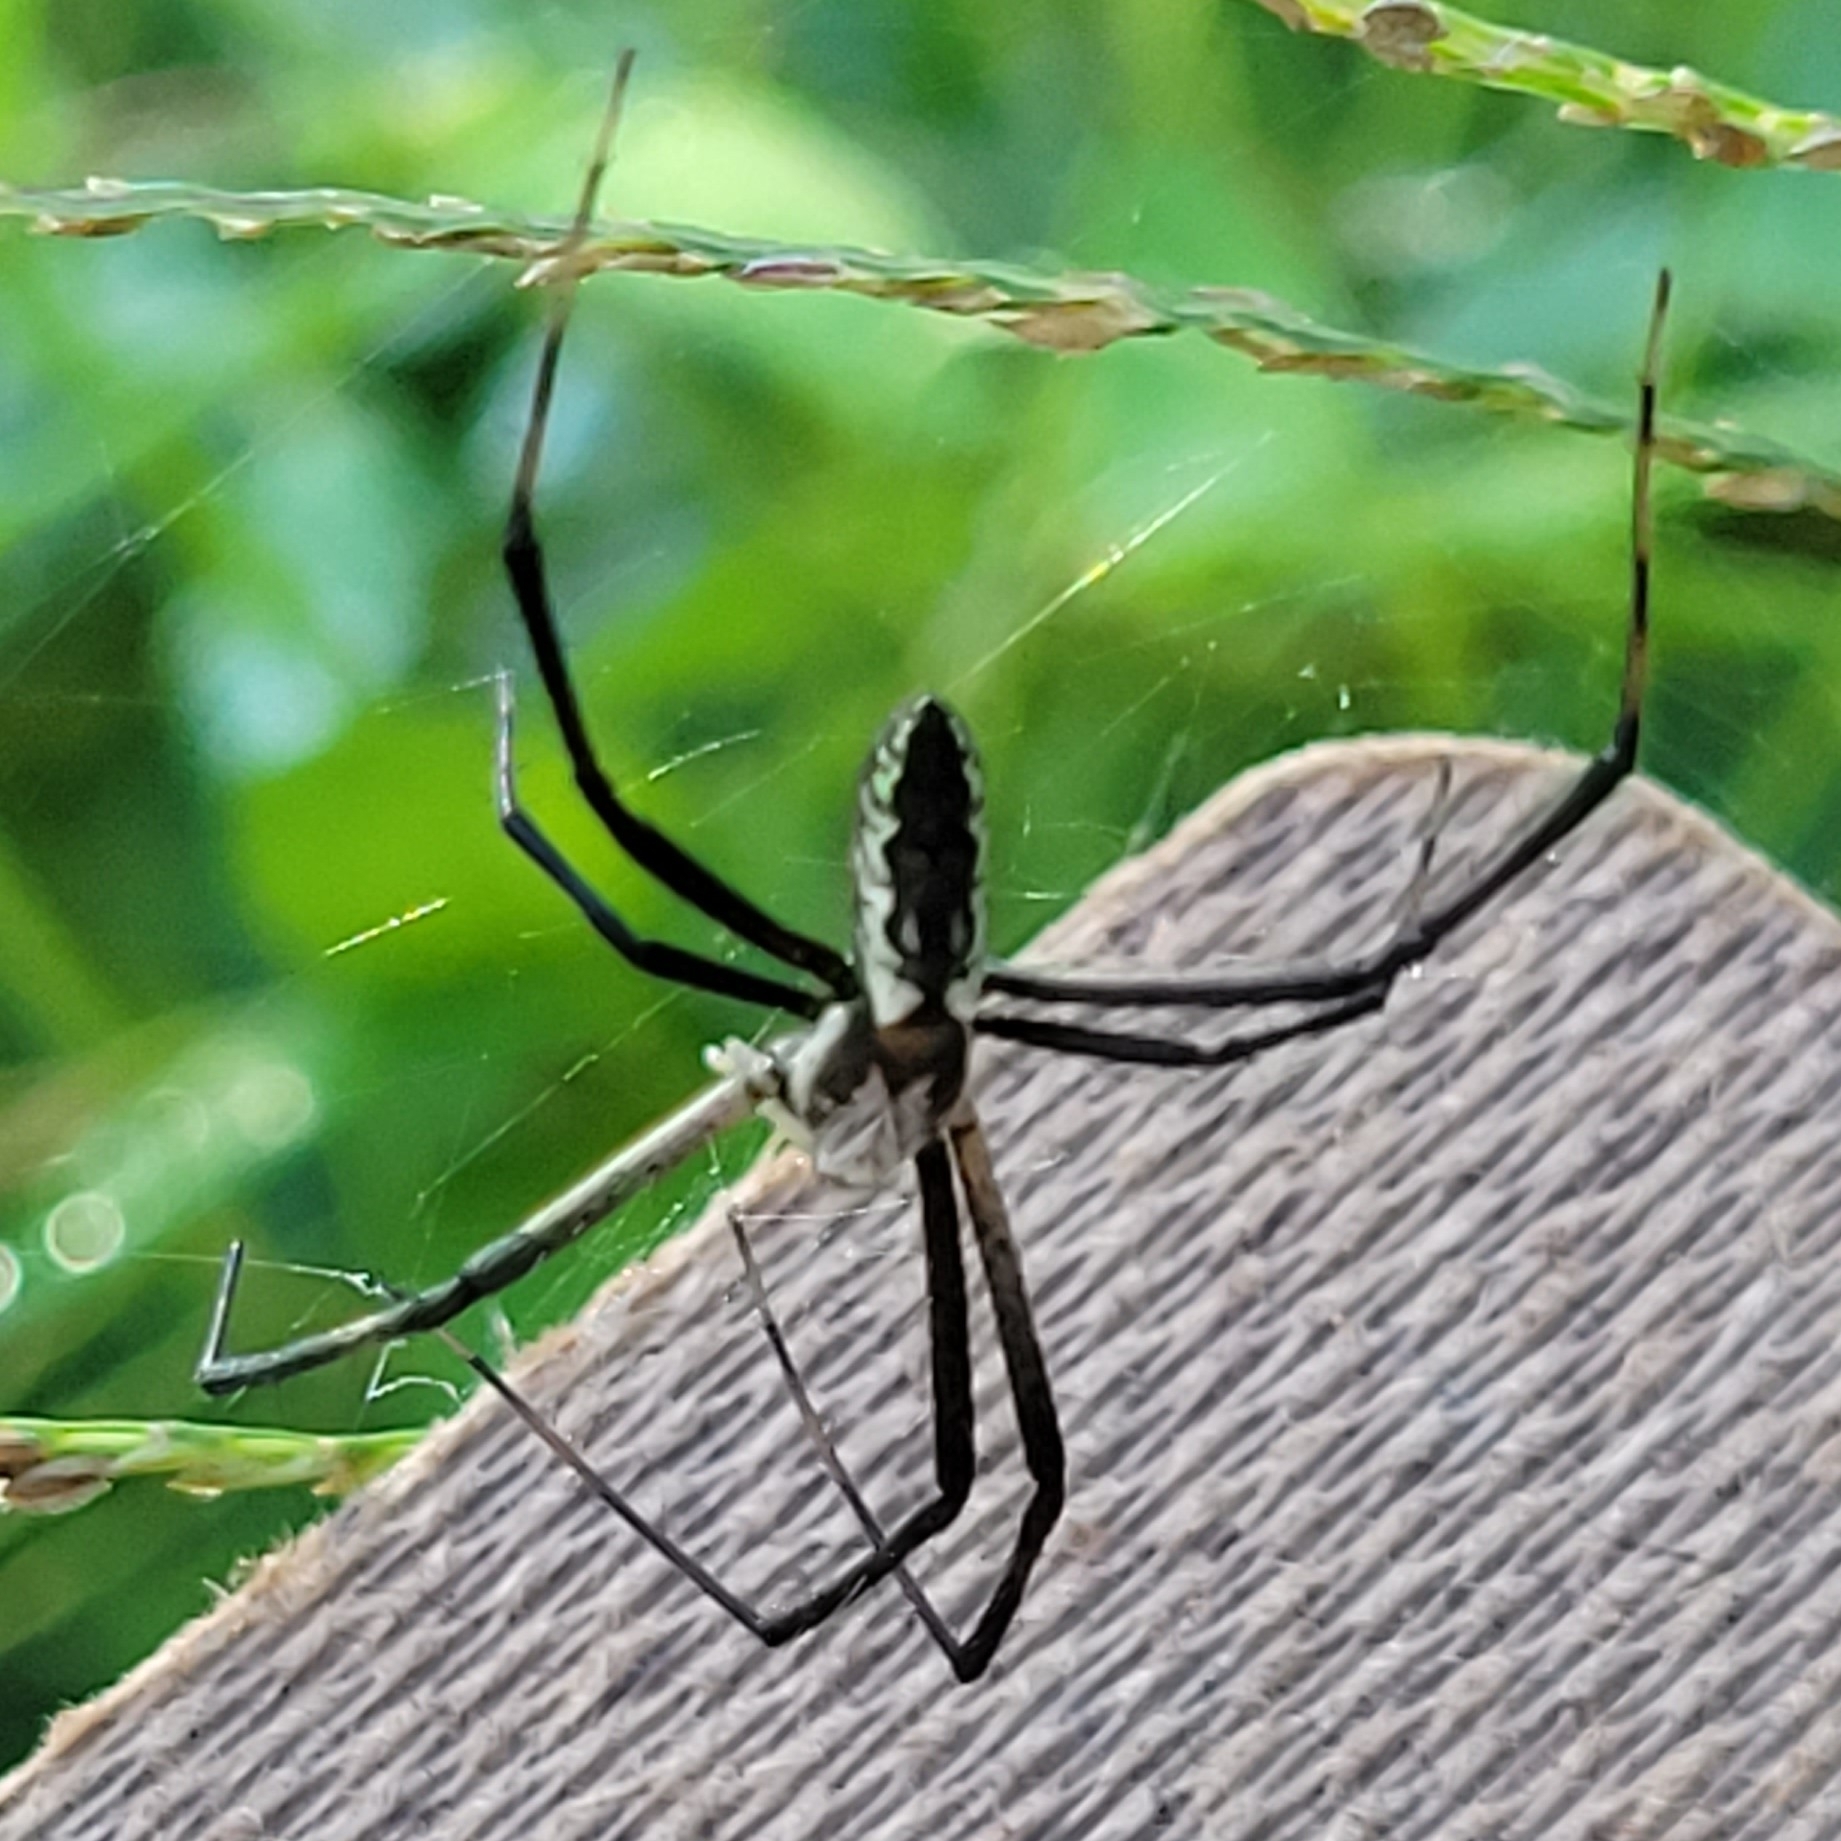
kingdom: Animalia
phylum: Arthropoda
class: Arachnida
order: Araneae
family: Araneidae
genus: Argiope
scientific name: Argiope aurantia
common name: Orb weavers
